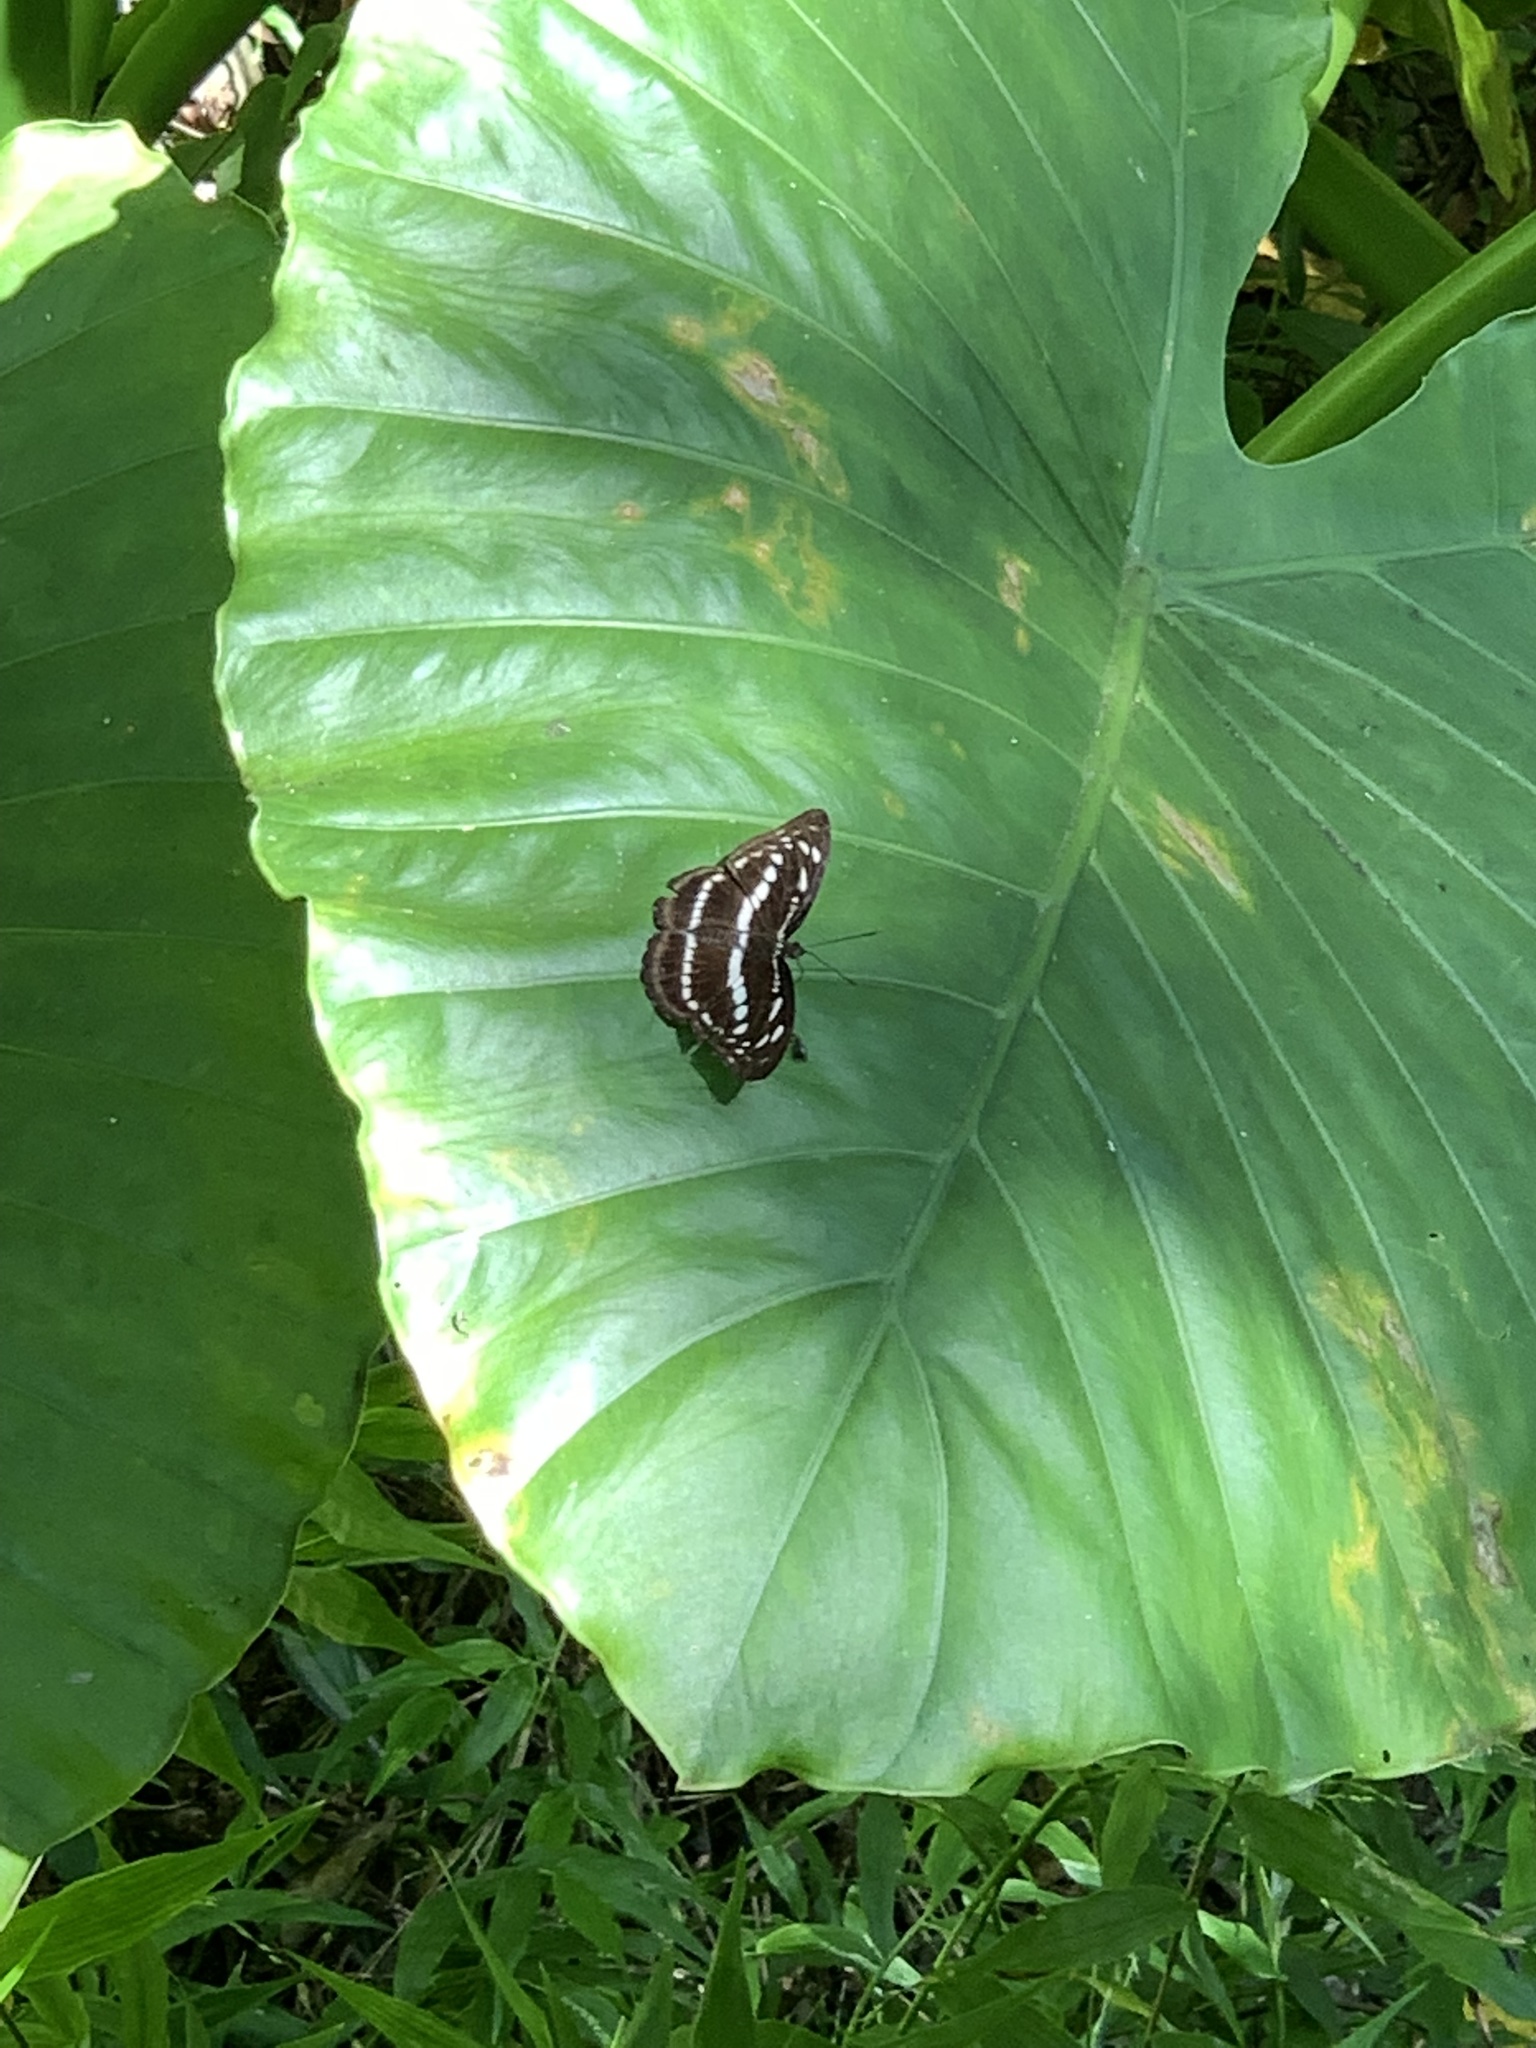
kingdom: Animalia
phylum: Arthropoda
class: Insecta
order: Lepidoptera
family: Nymphalidae
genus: Parathyma
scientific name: Parathyma selenophora
